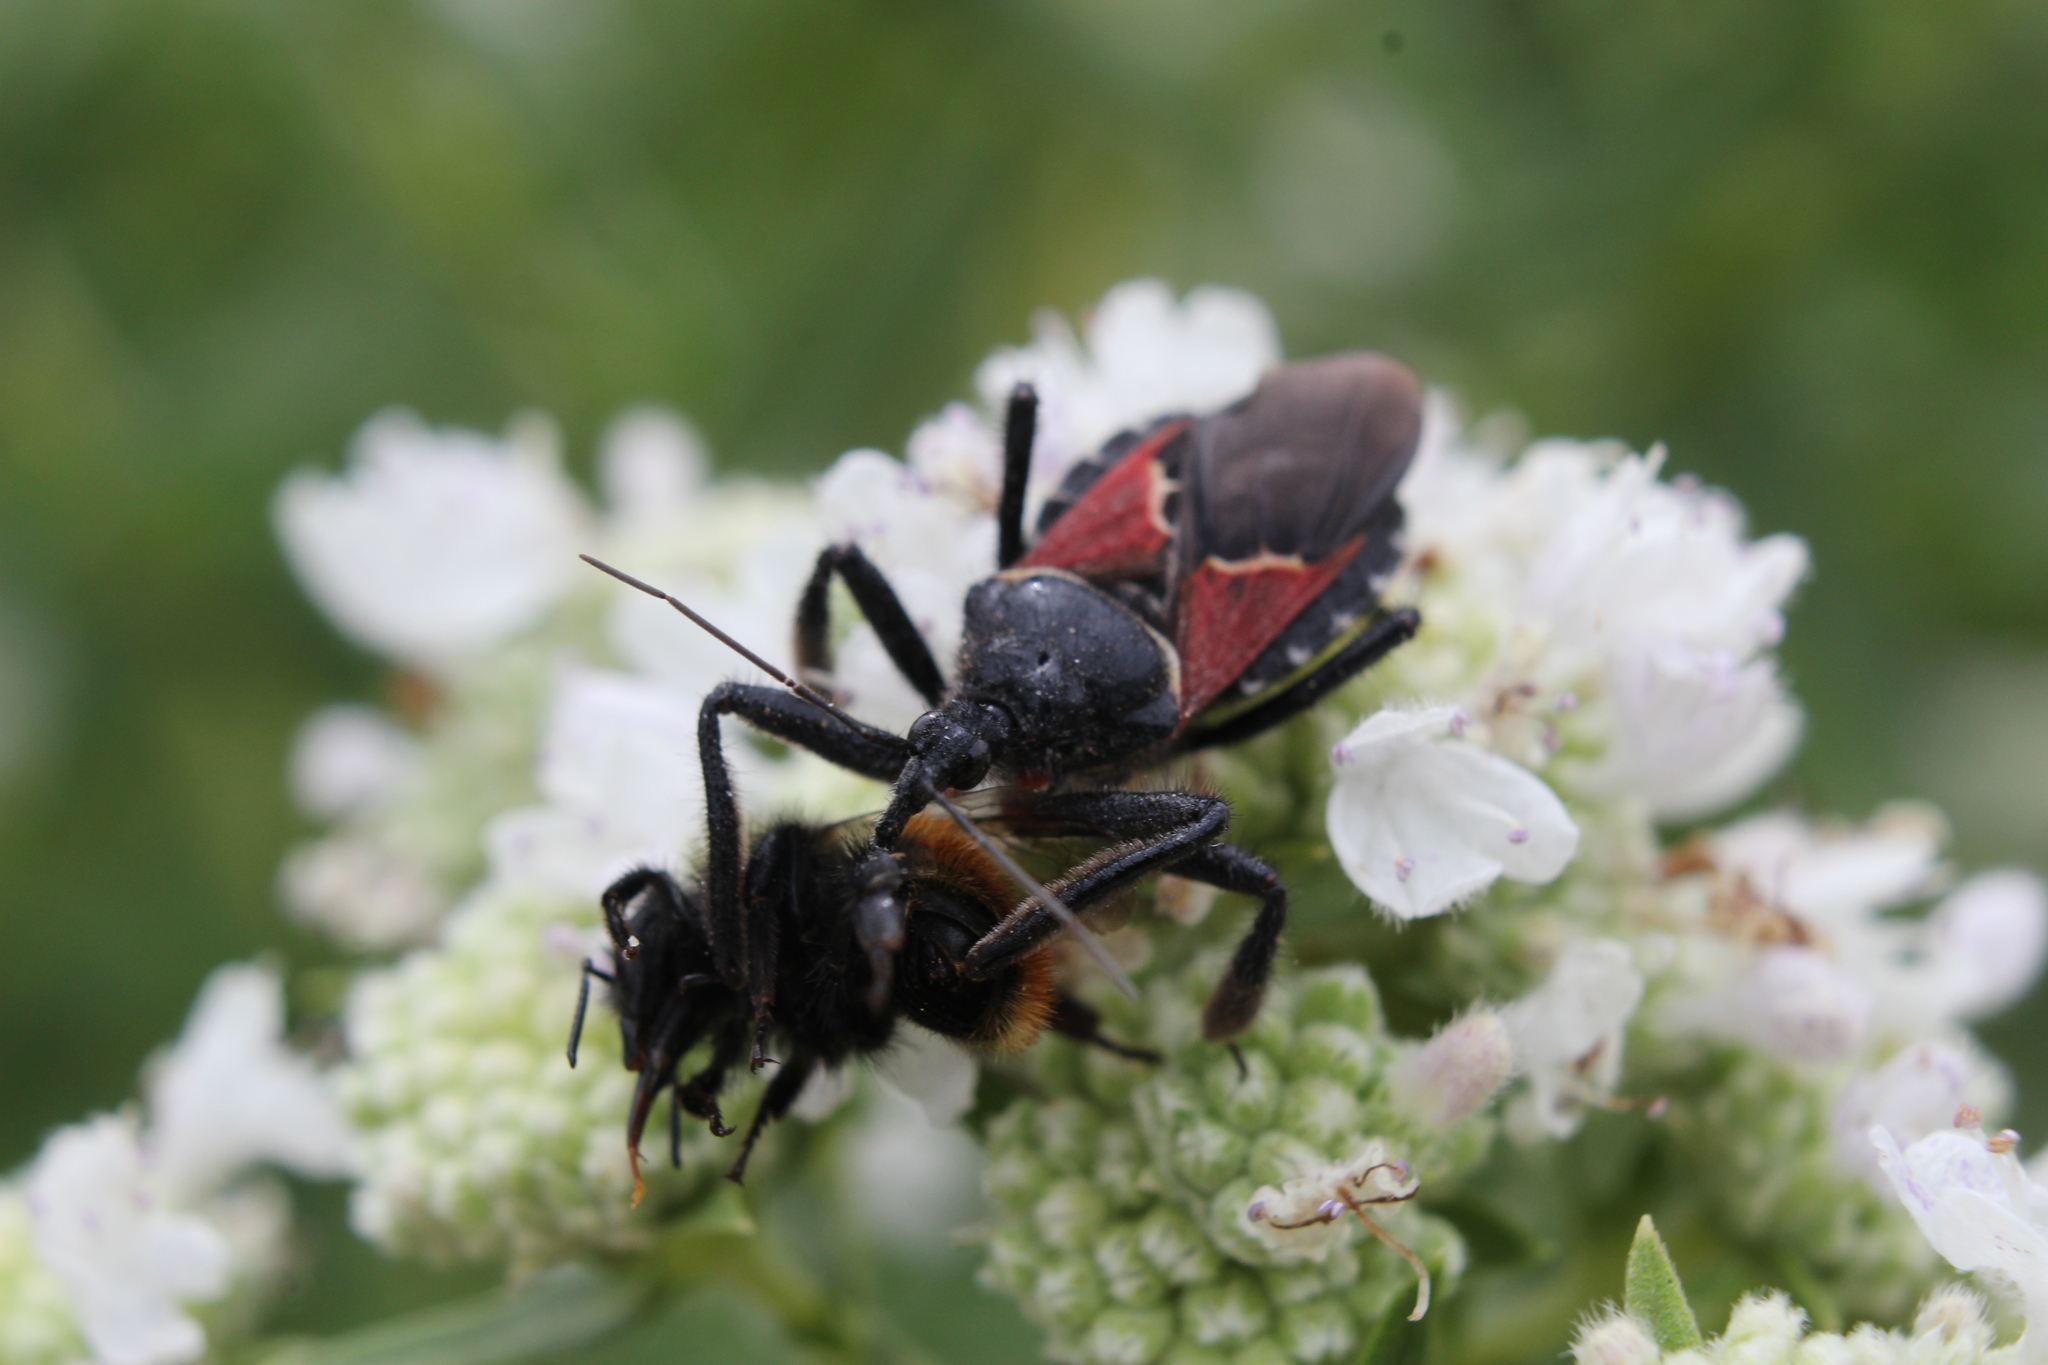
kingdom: Animalia
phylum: Arthropoda
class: Insecta
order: Hymenoptera
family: Apidae
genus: Pyrobombus
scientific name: Pyrobombus
